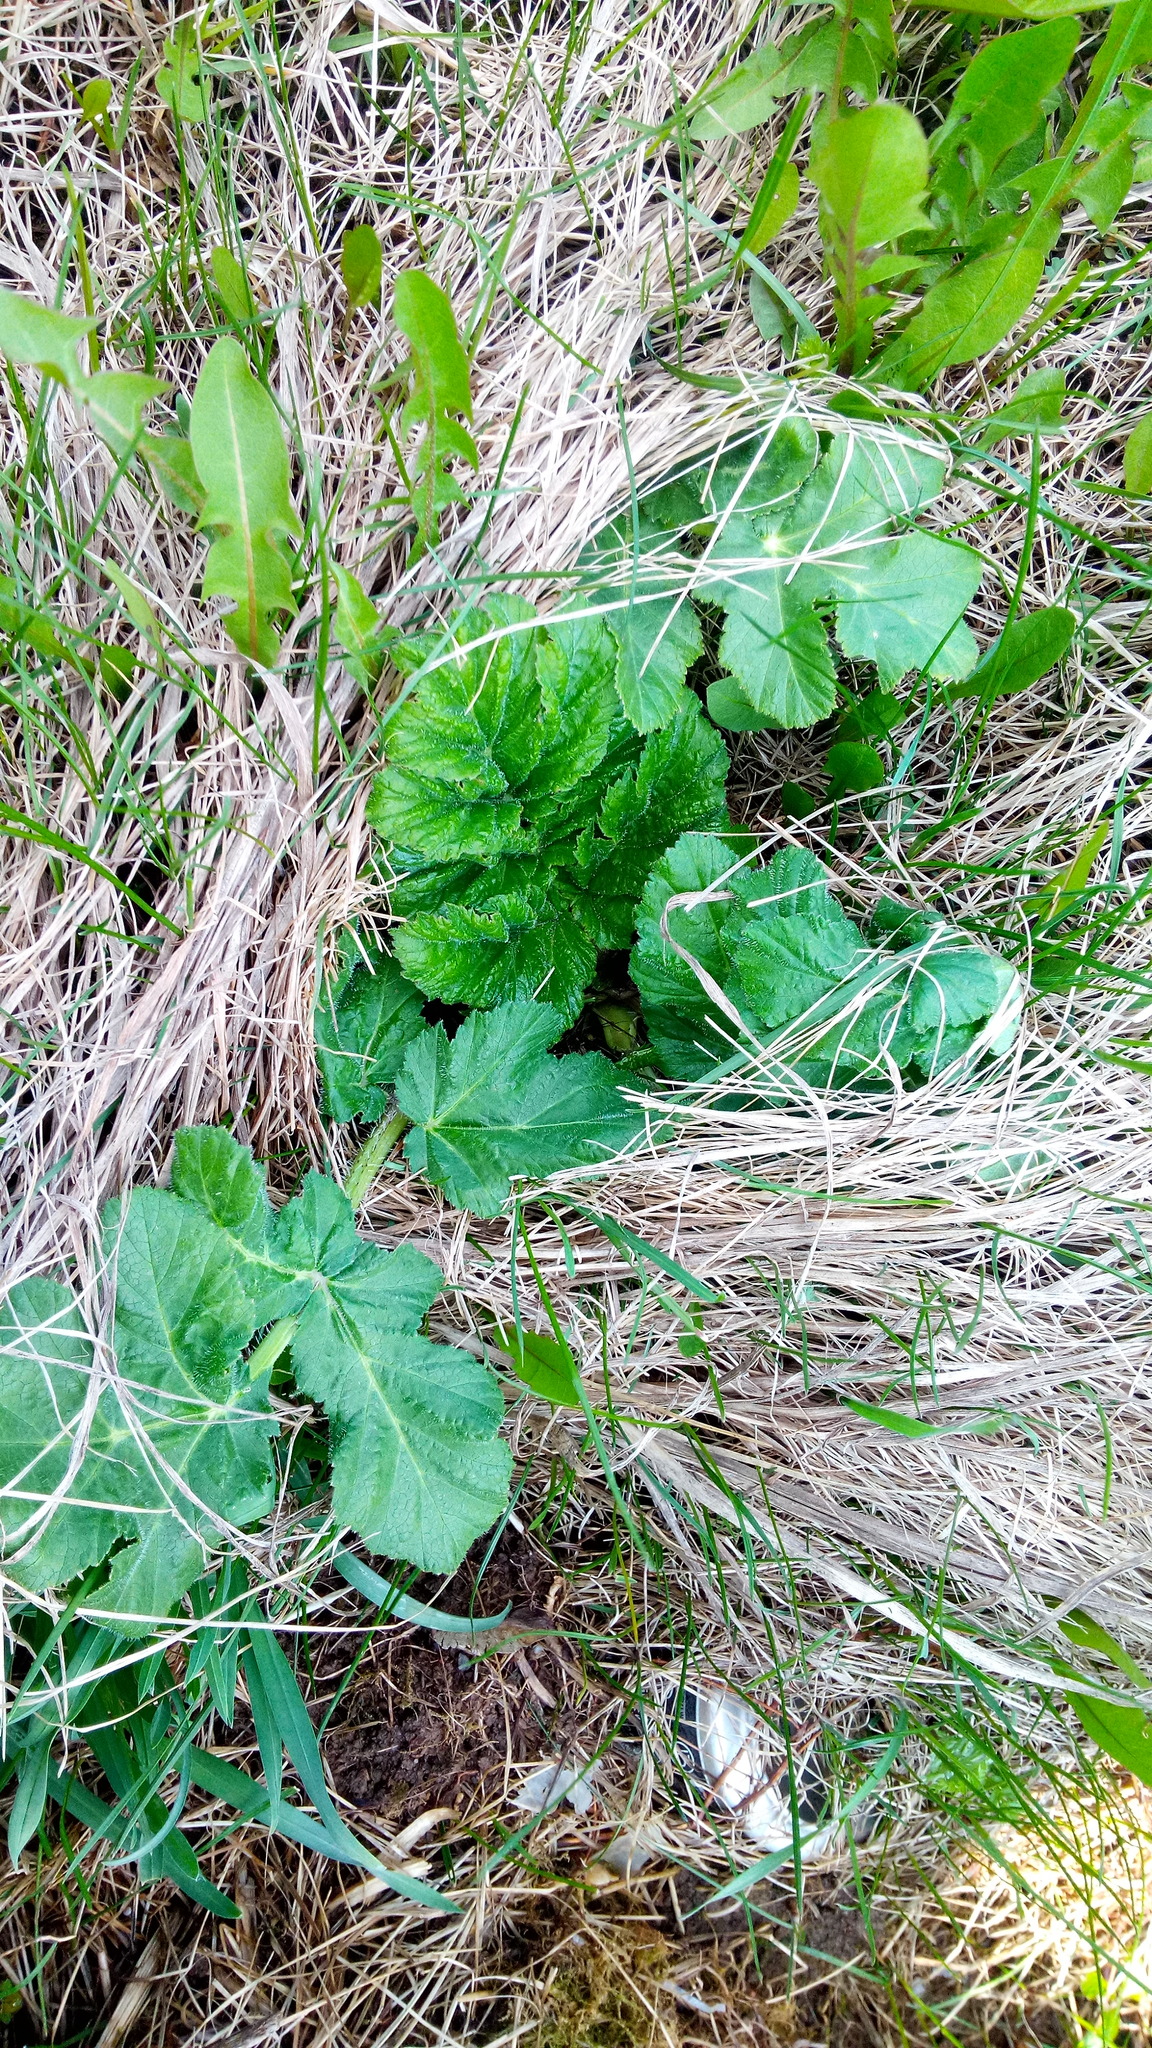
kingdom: Plantae
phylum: Tracheophyta
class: Magnoliopsida
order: Apiales
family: Apiaceae
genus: Heracleum
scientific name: Heracleum sosnowskyi
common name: Sosnowsky's hogweed
